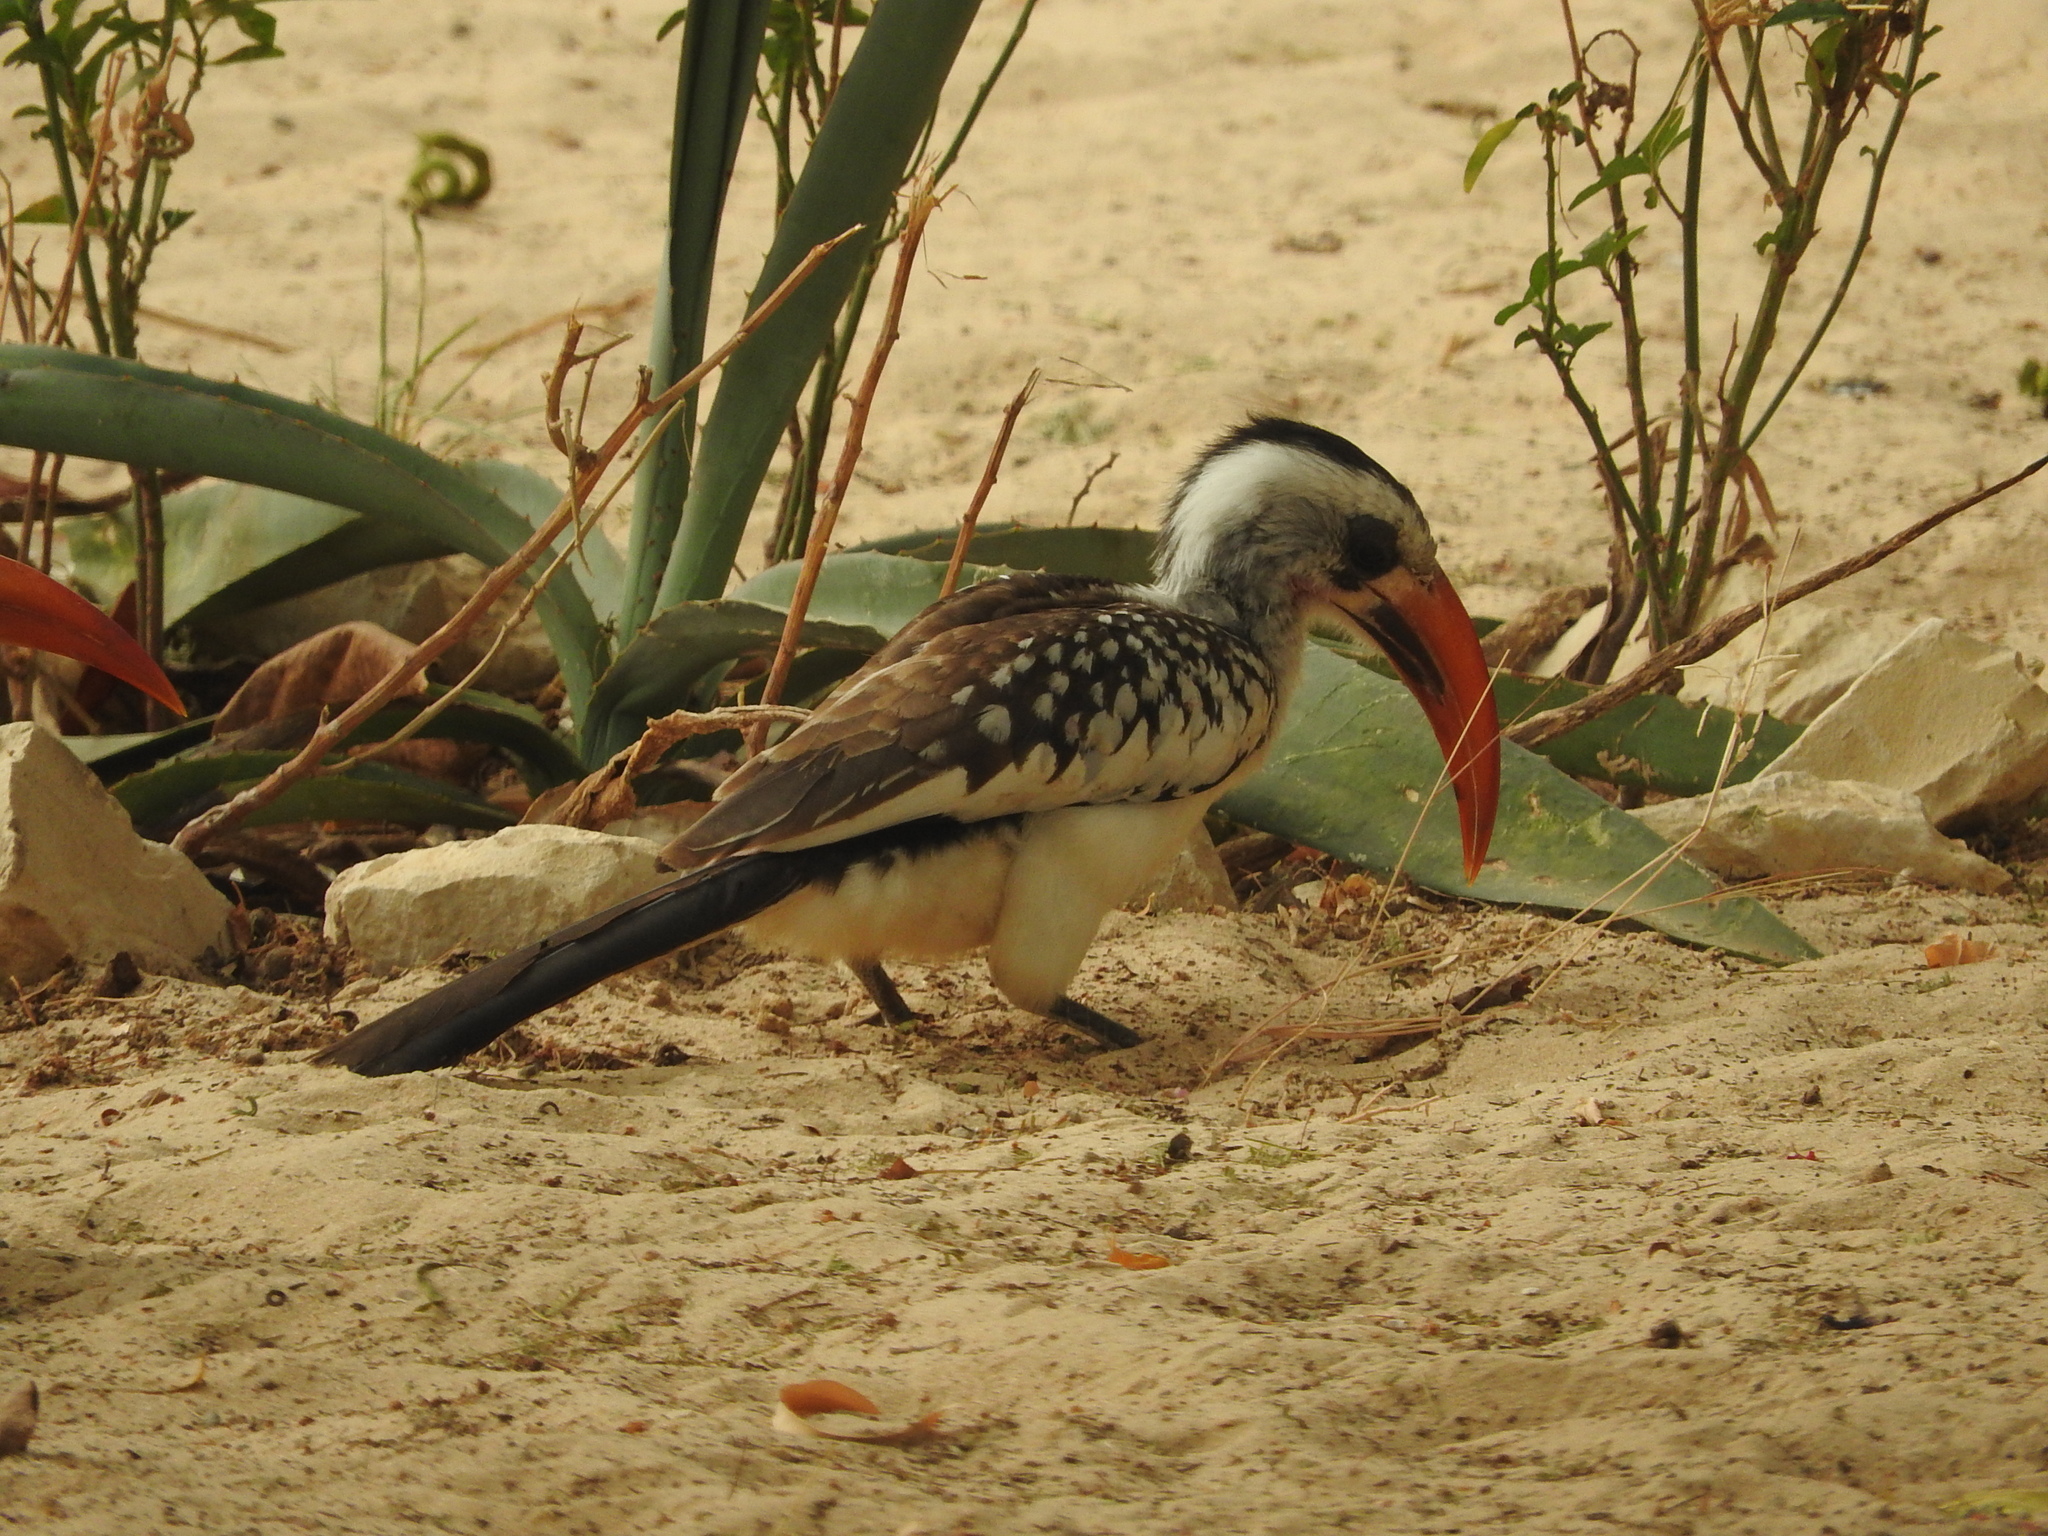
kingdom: Animalia
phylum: Chordata
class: Aves
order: Bucerotiformes
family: Bucerotidae
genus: Tockus
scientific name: Tockus kempi
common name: Western red-billed hornbill
